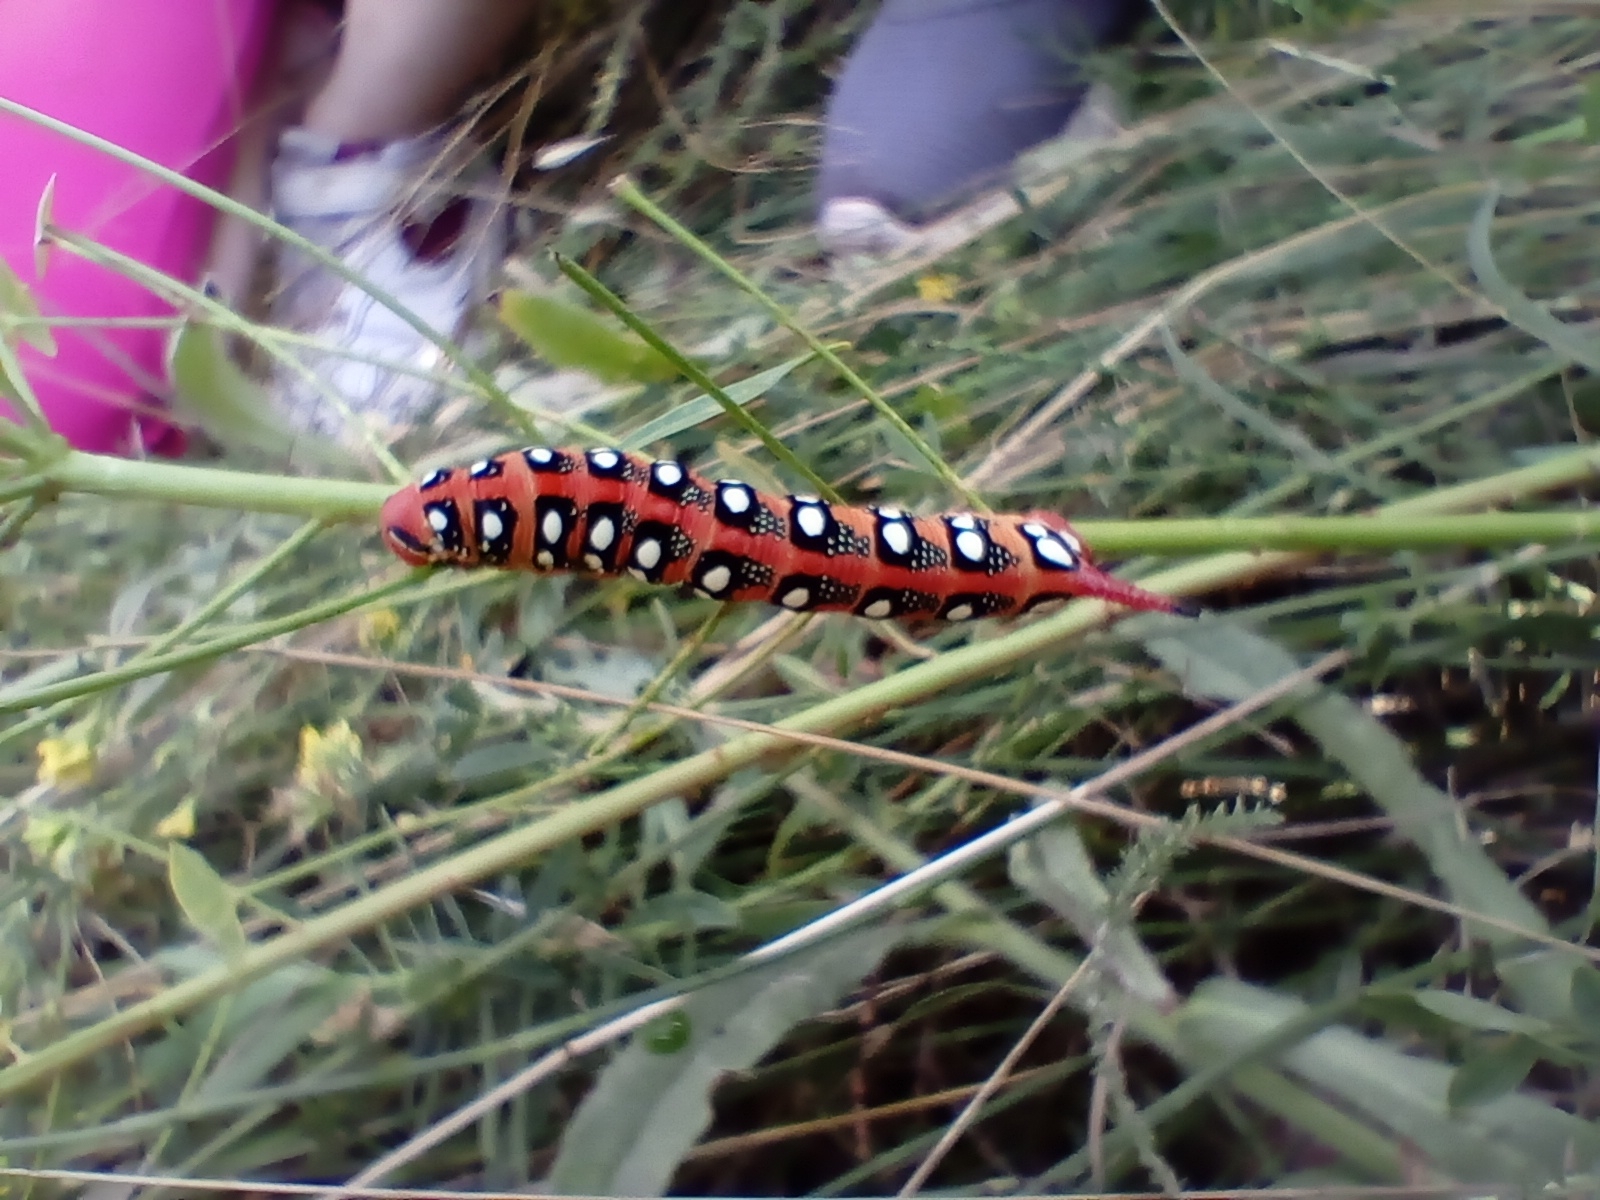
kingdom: Animalia
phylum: Arthropoda
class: Insecta
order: Lepidoptera
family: Sphingidae
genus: Hyles
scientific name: Hyles euphorbiae
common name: Spurge hawk-moth
